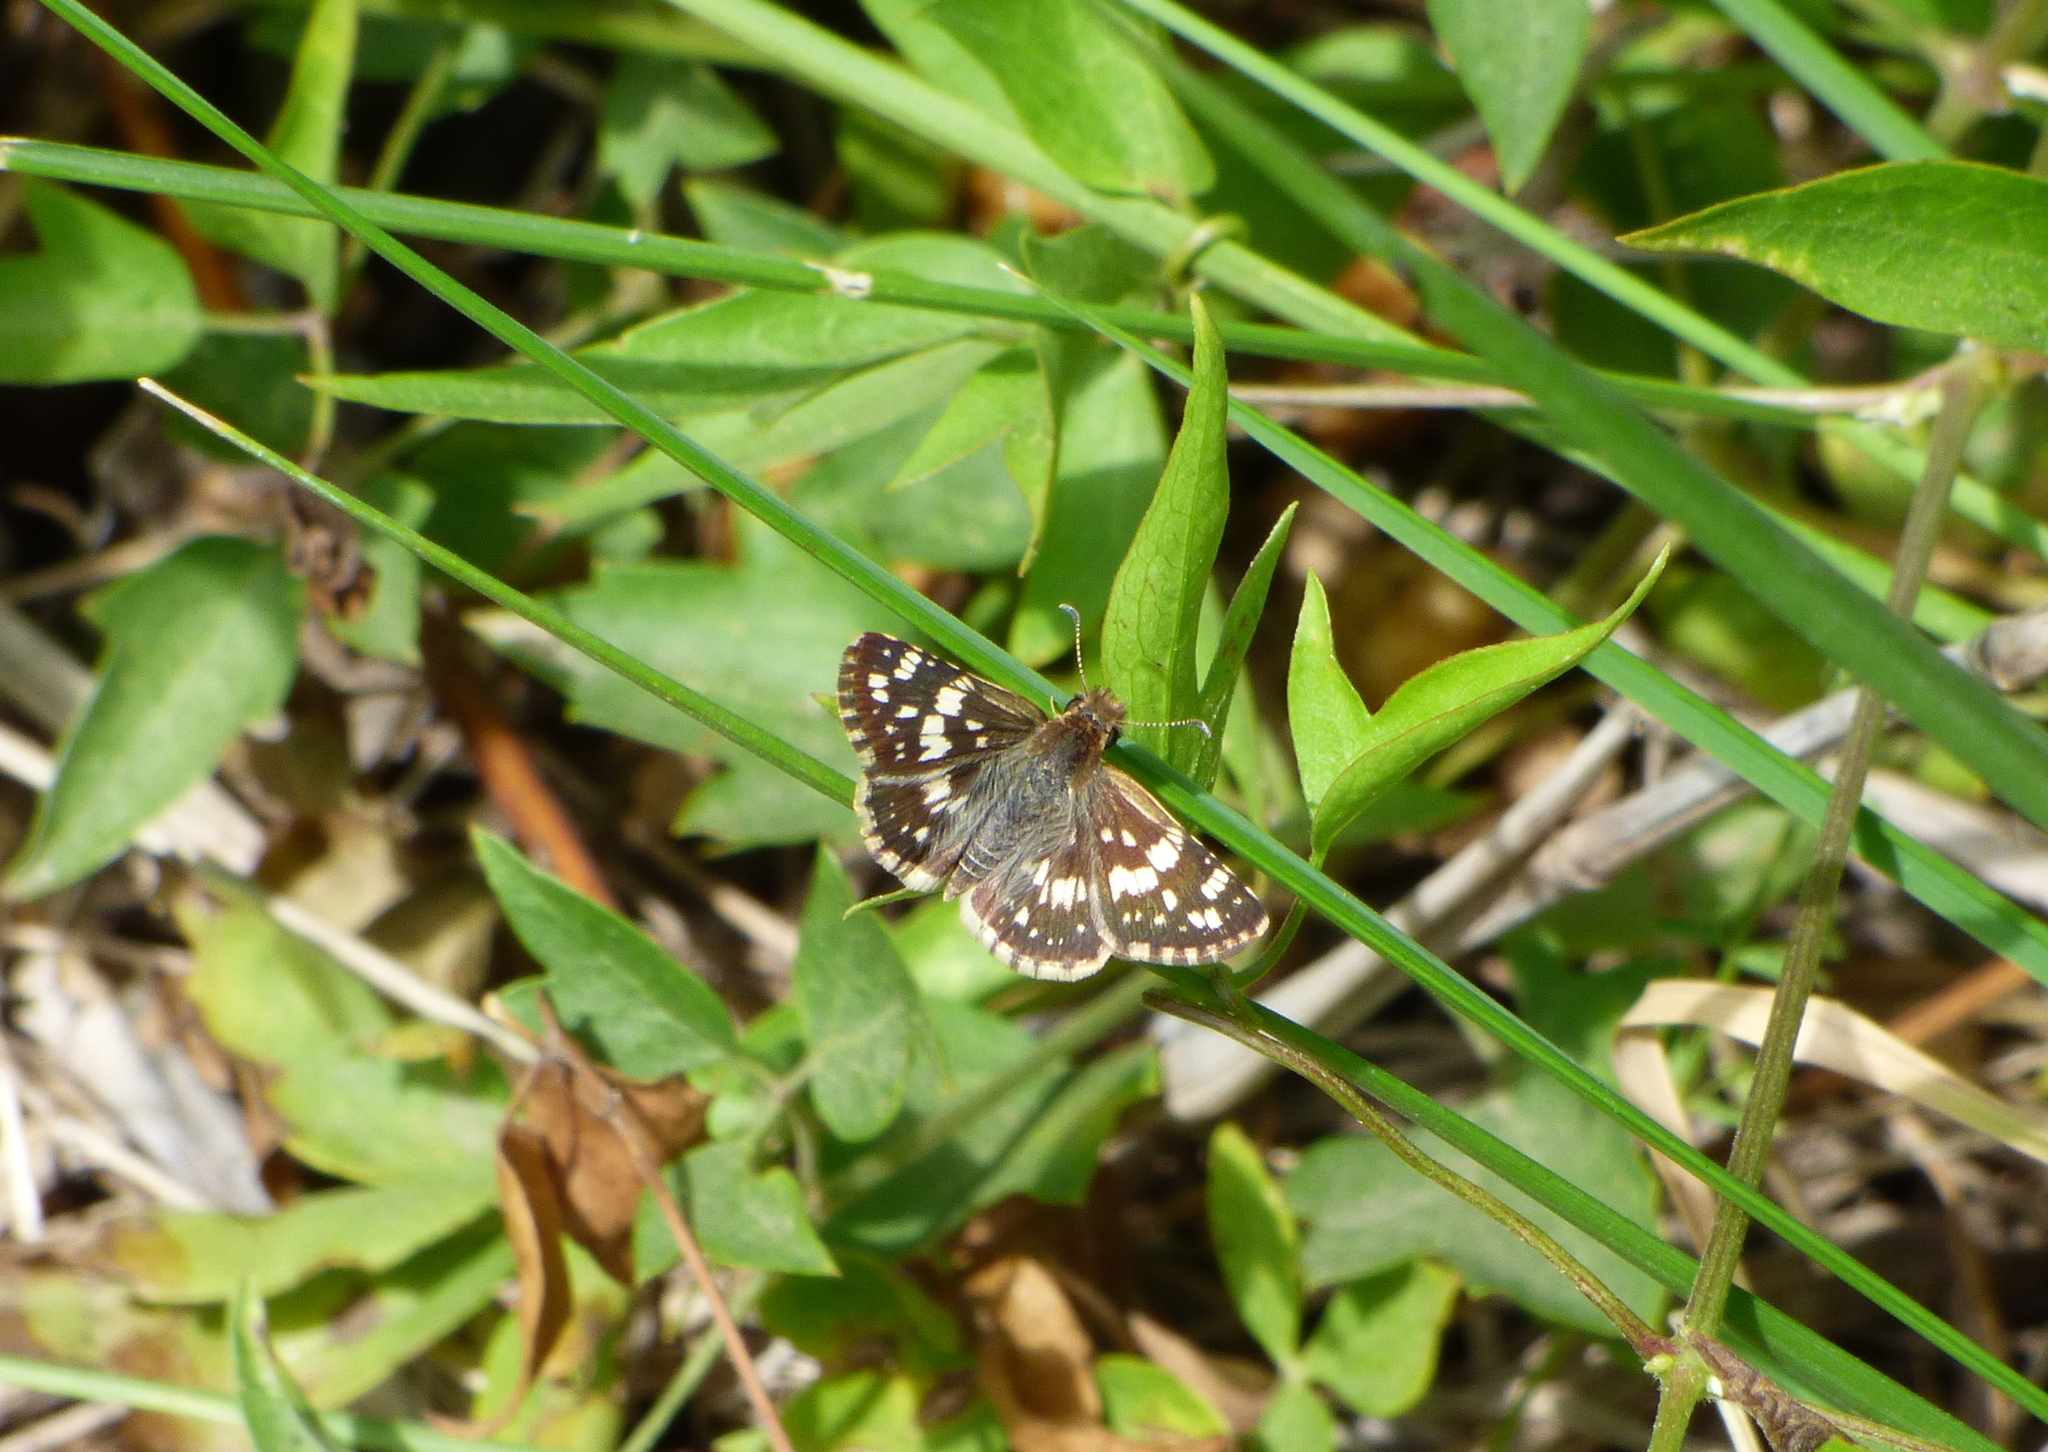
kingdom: Animalia
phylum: Arthropoda
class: Insecta
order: Lepidoptera
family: Hesperiidae
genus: Burnsius
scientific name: Burnsius orcynoides
